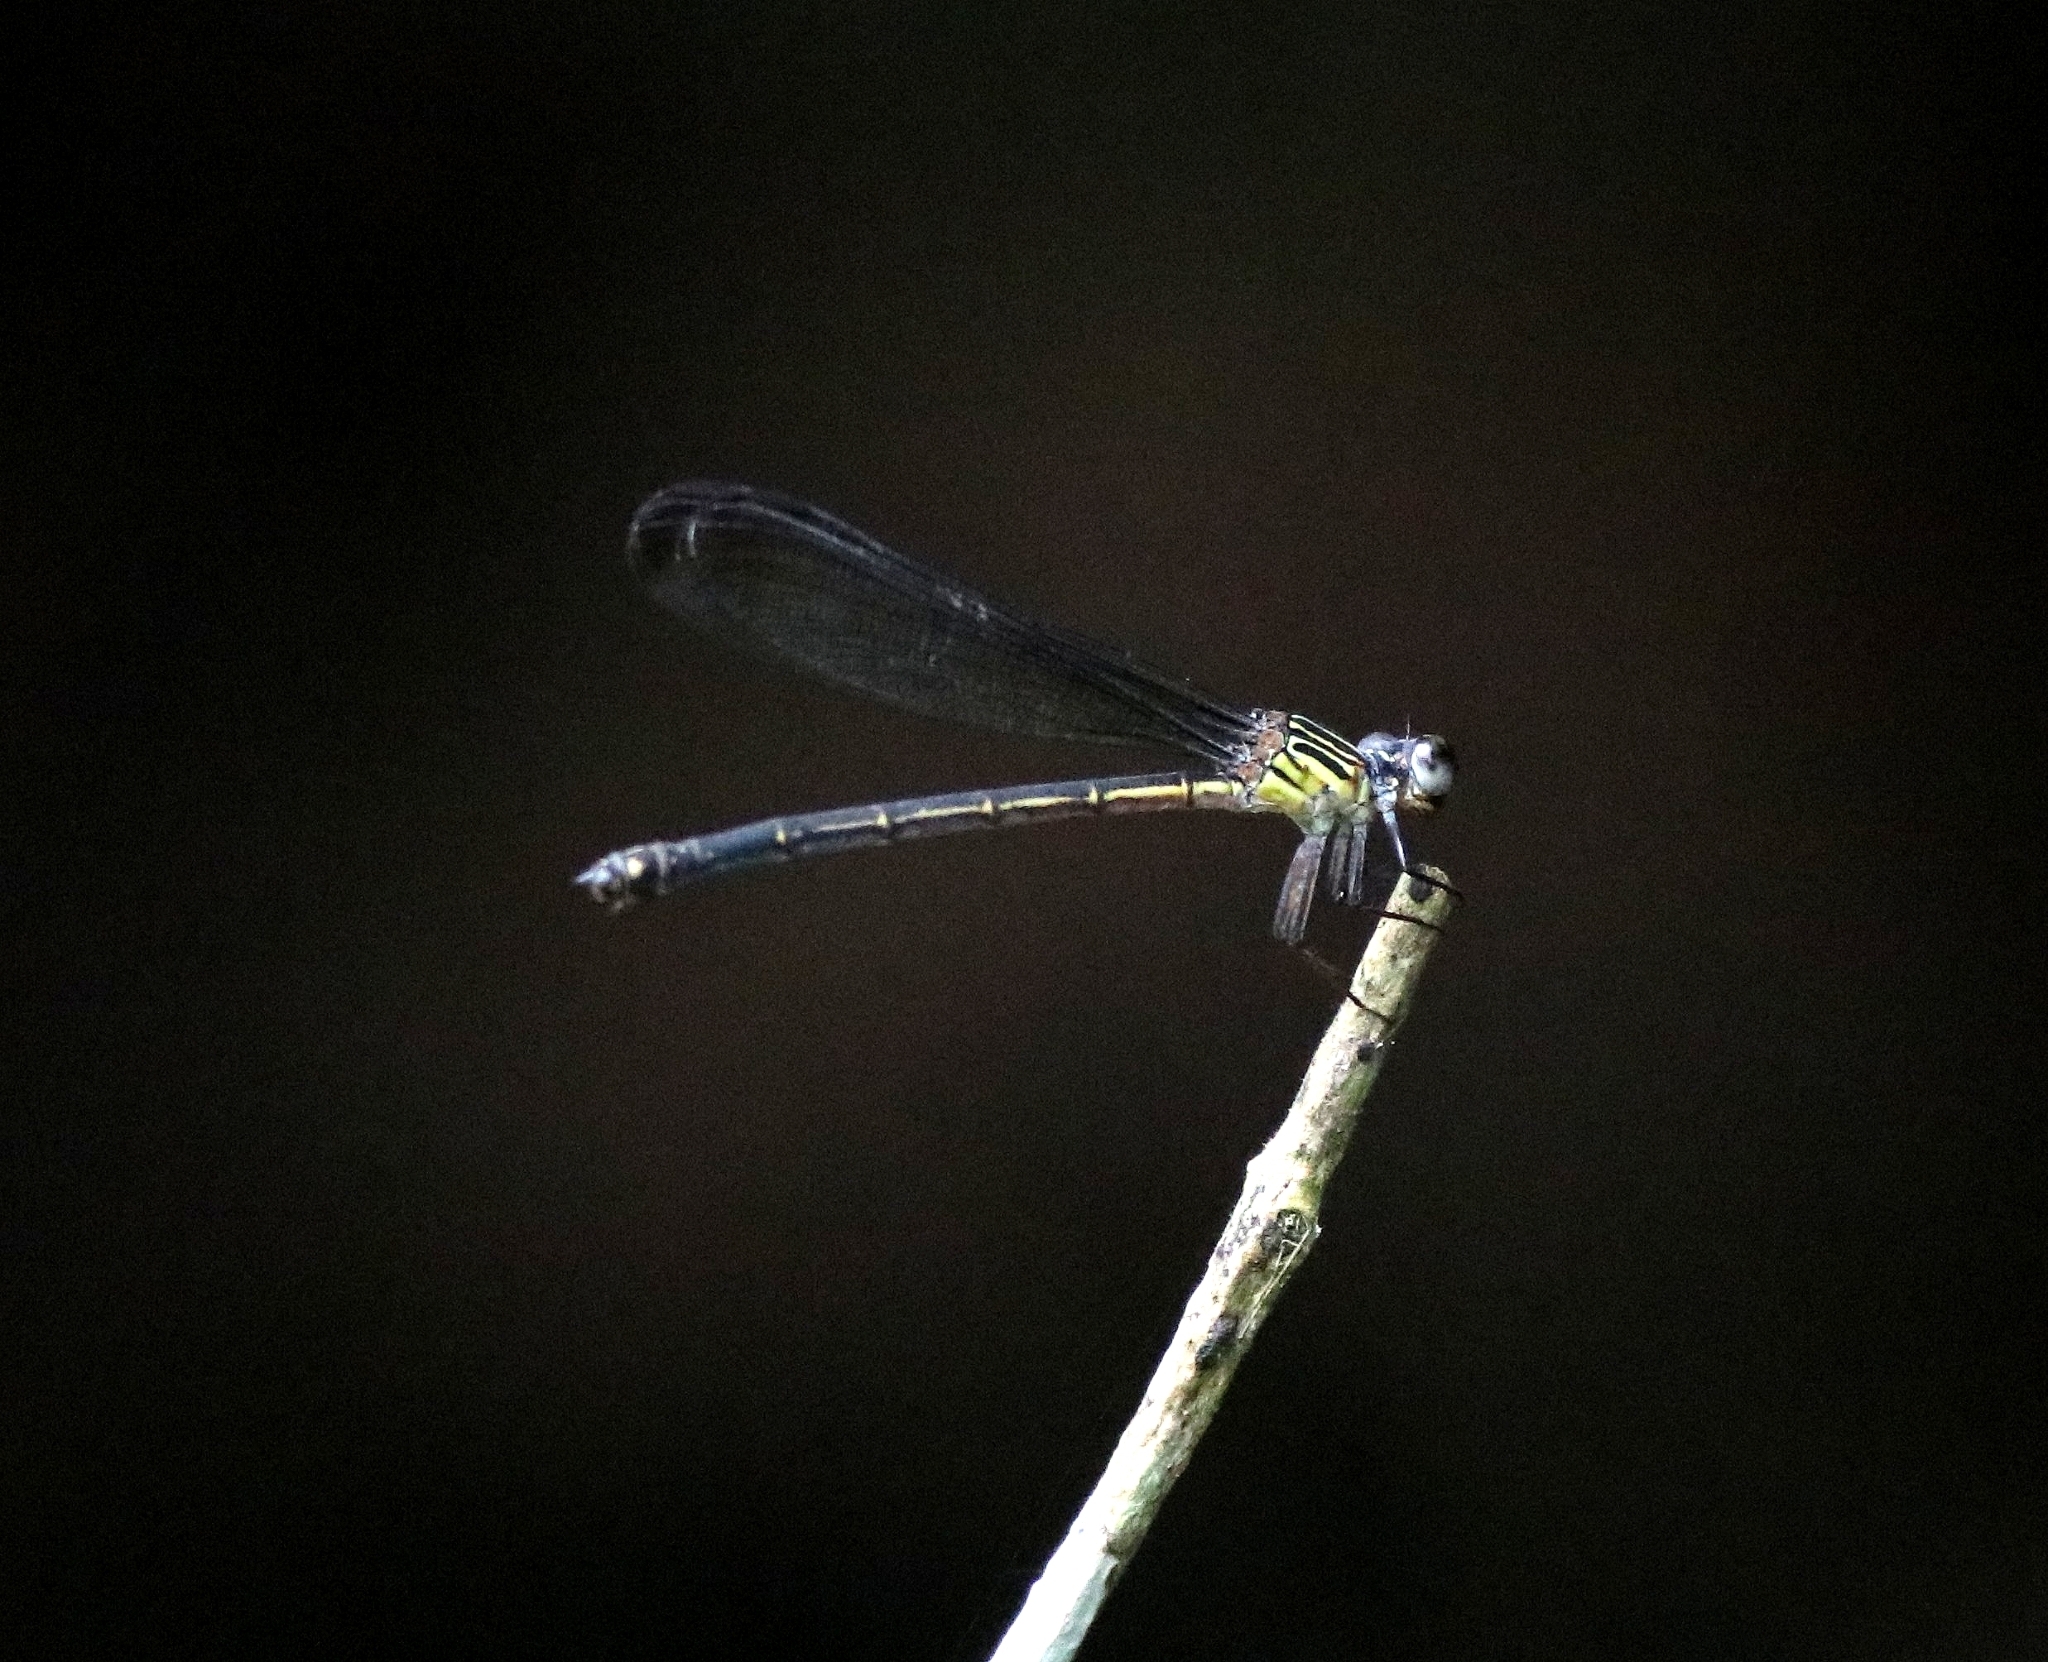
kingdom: Animalia
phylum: Arthropoda
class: Insecta
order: Odonata
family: Euphaeidae
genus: Euphaea
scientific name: Euphaea fraseri
